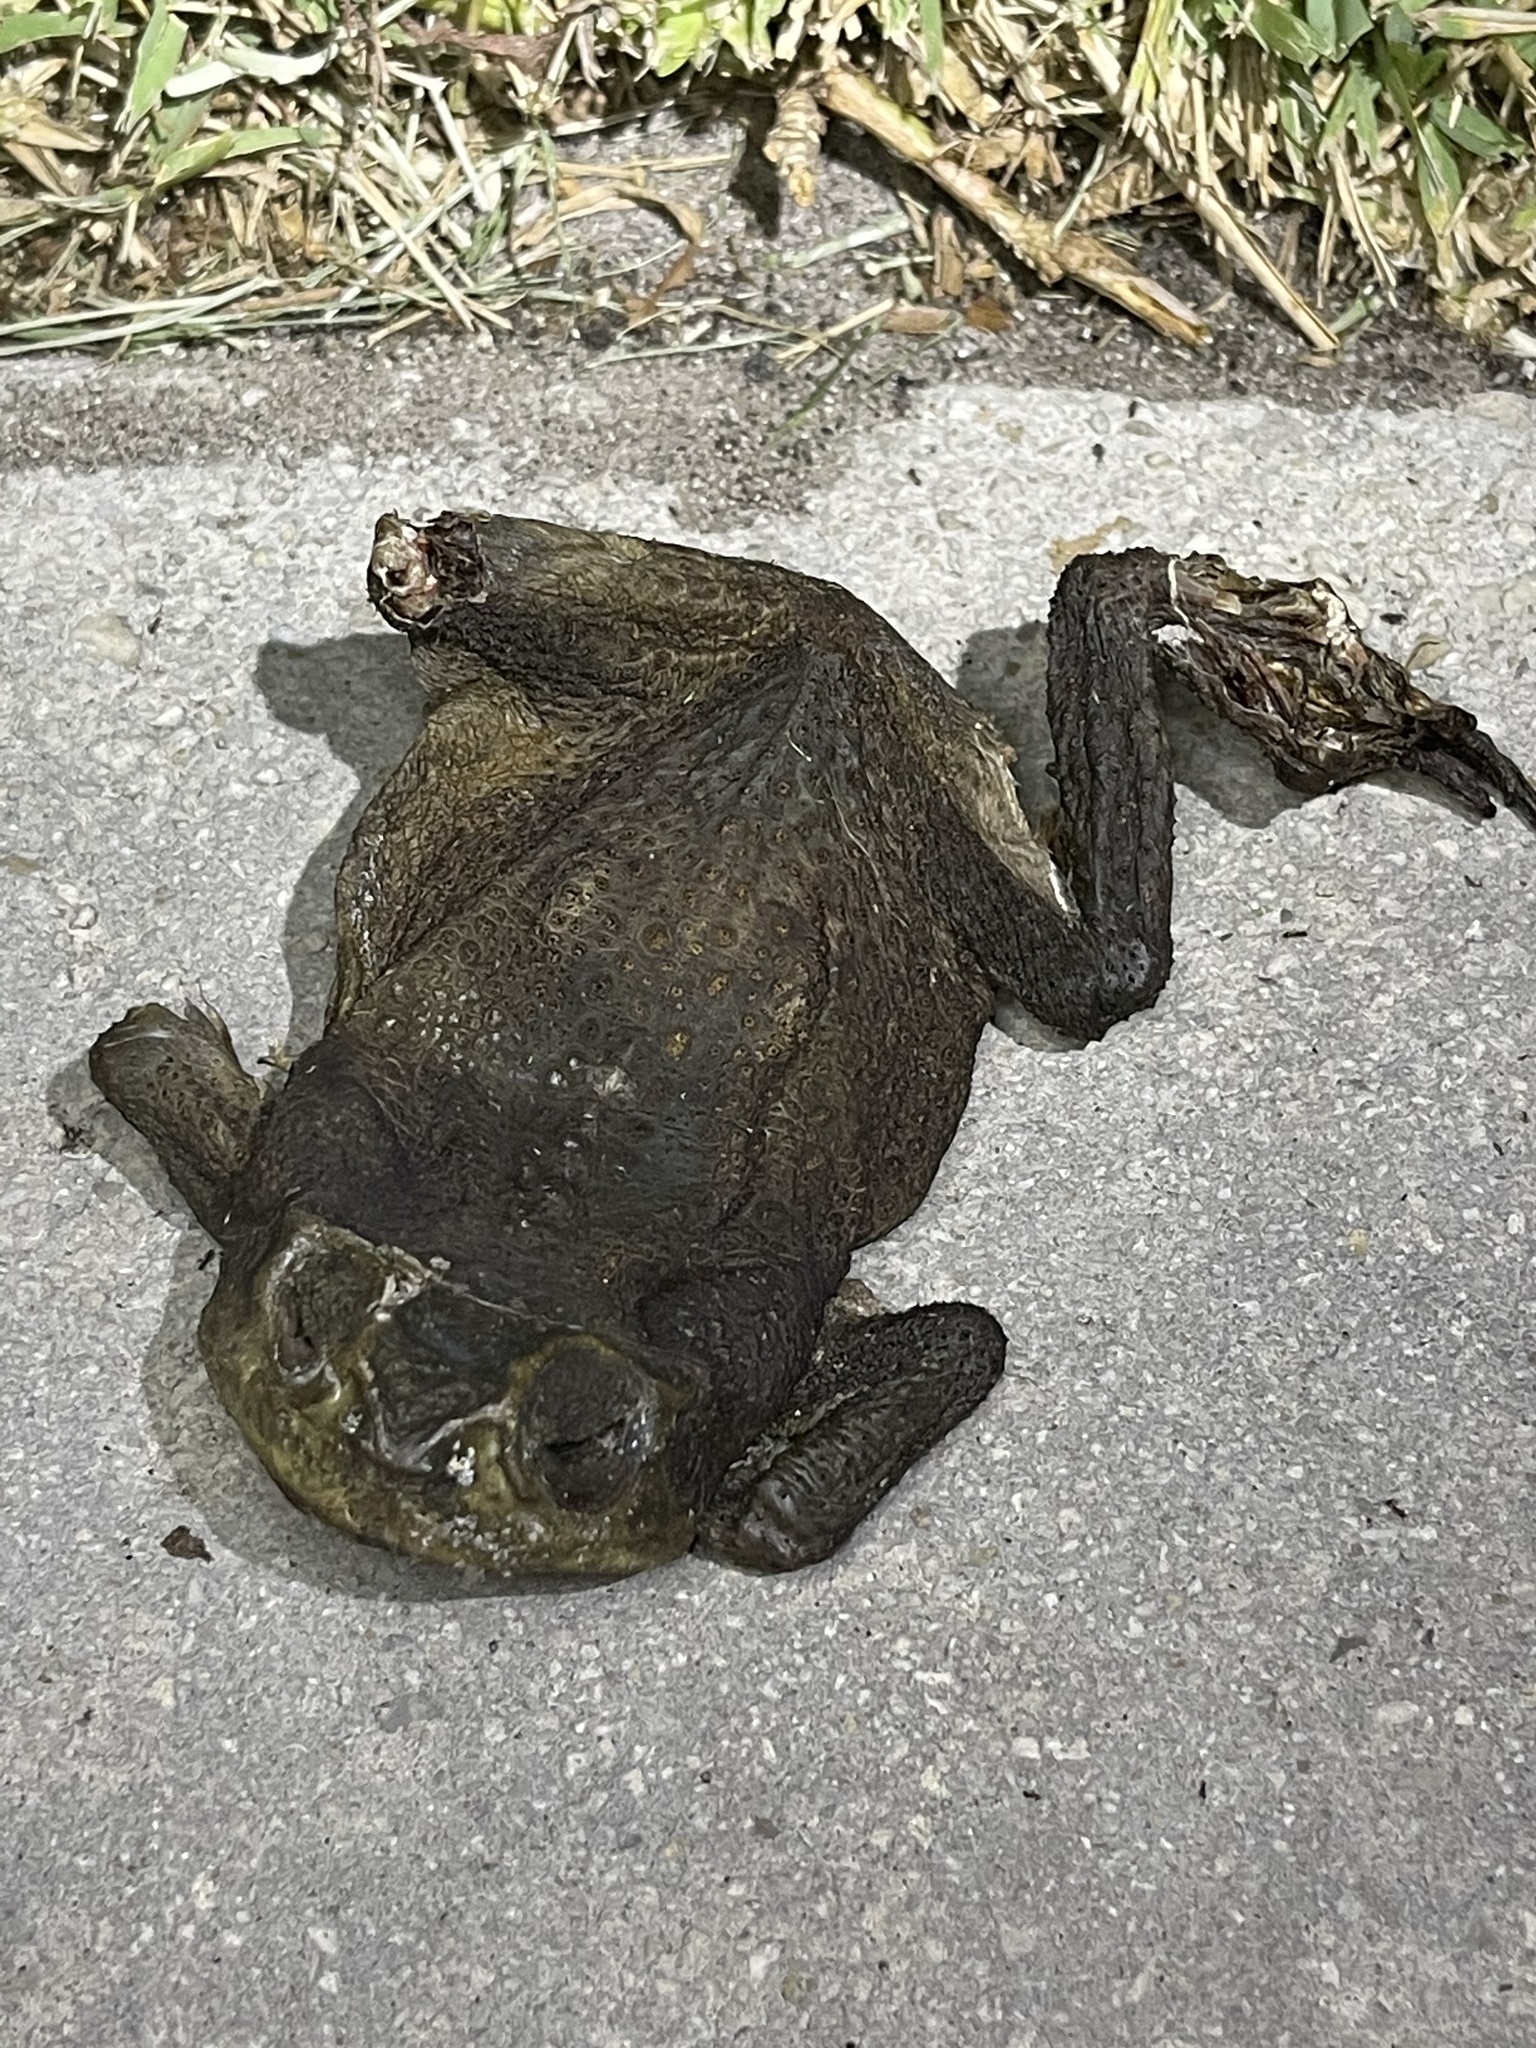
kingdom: Animalia
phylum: Chordata
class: Amphibia
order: Anura
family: Bufonidae
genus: Rhinella
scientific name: Rhinella marina
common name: Cane toad
